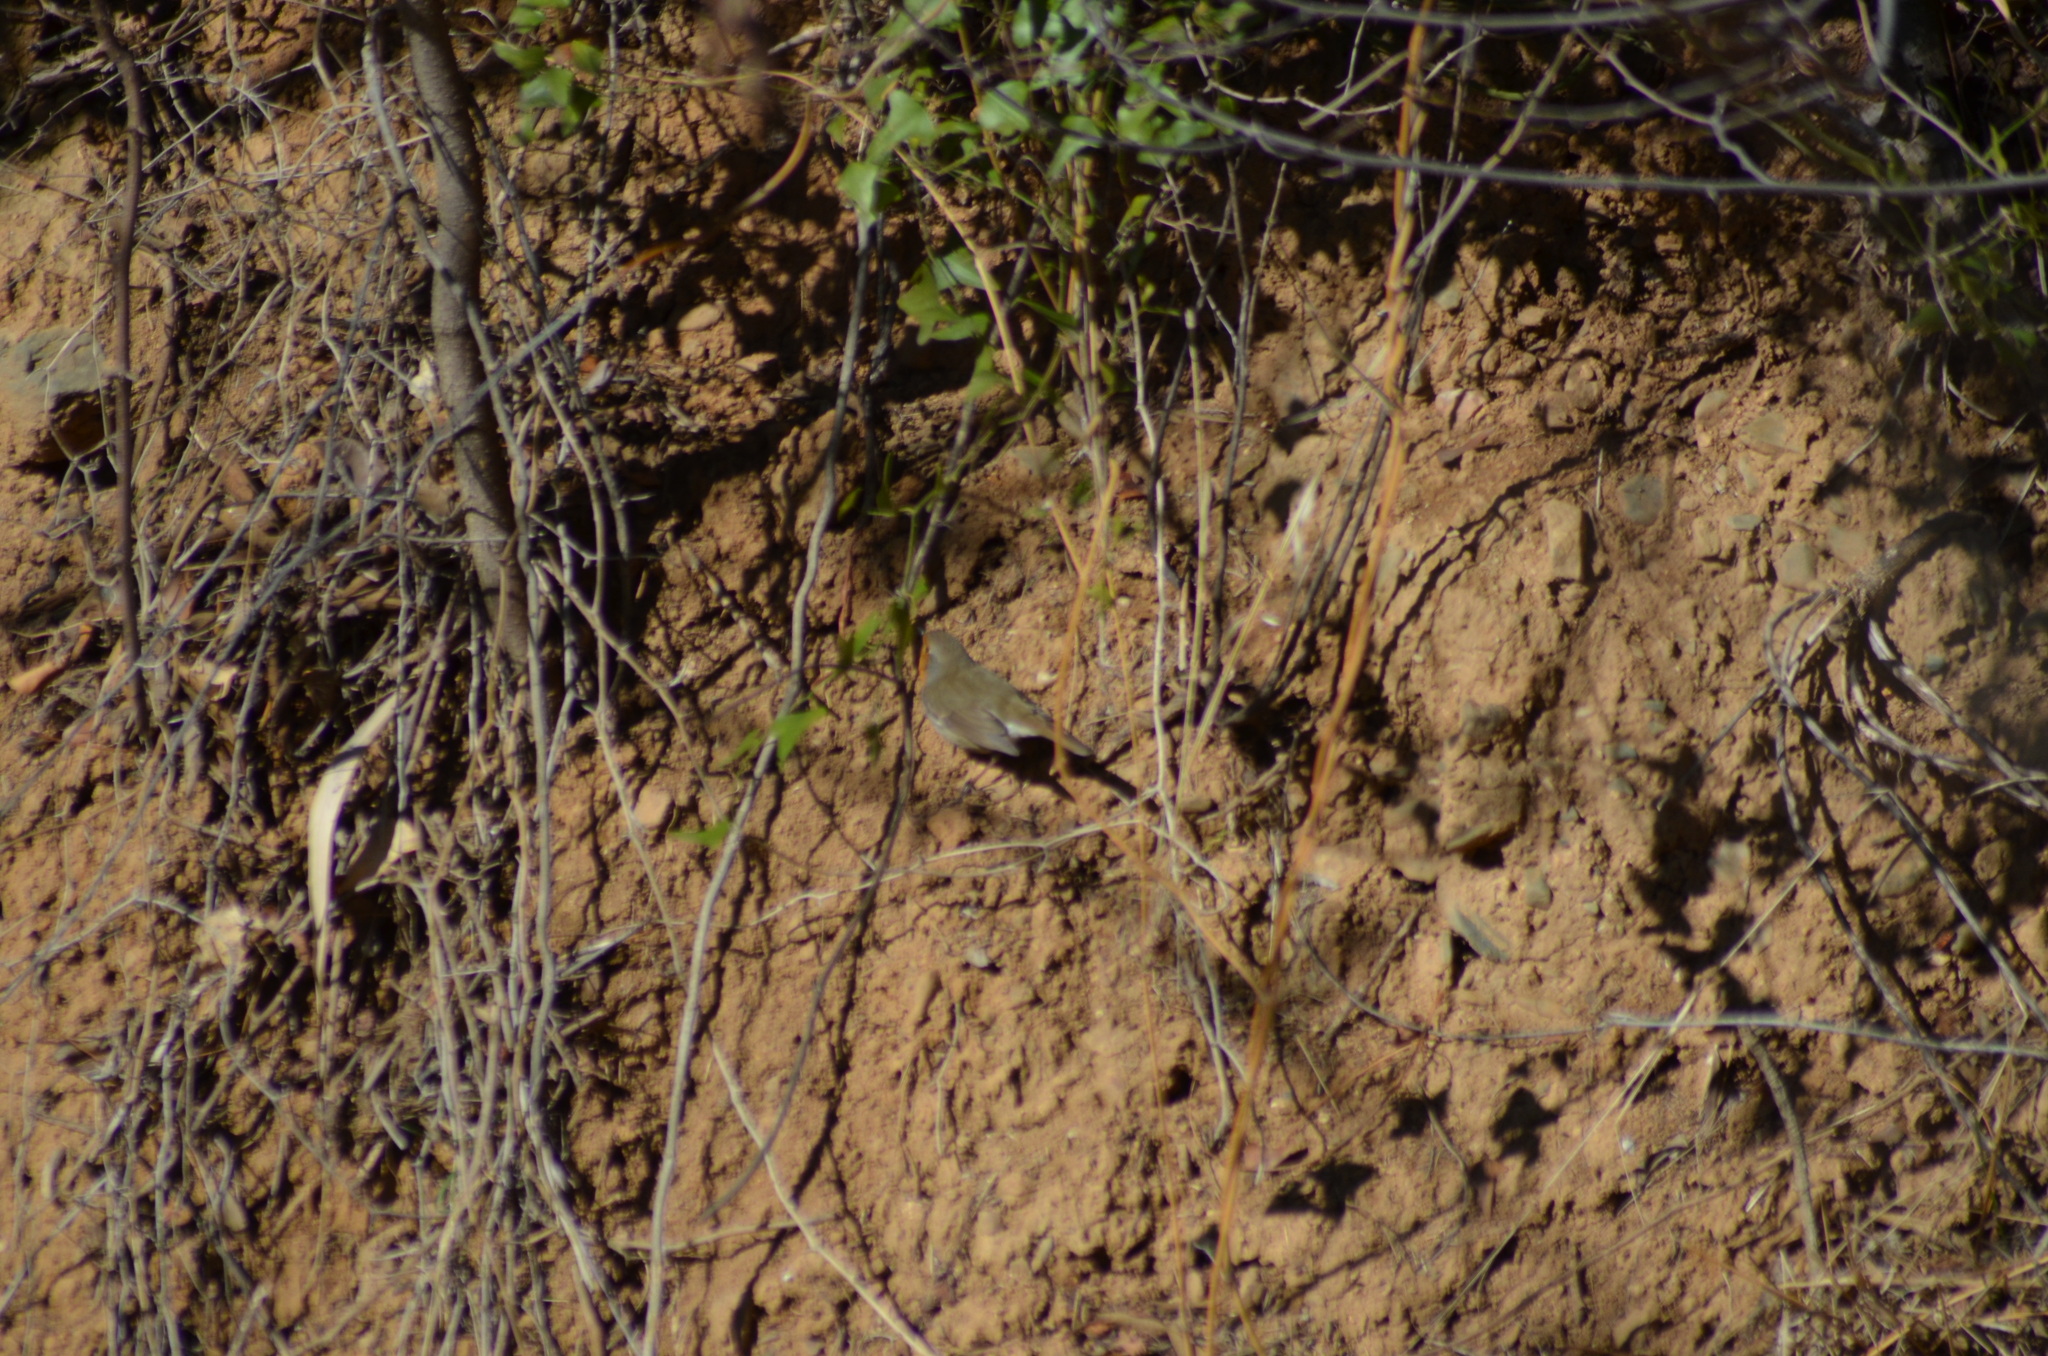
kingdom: Animalia
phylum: Chordata
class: Aves
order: Passeriformes
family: Muscicapidae
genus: Erithacus
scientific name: Erithacus rubecula
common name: European robin
